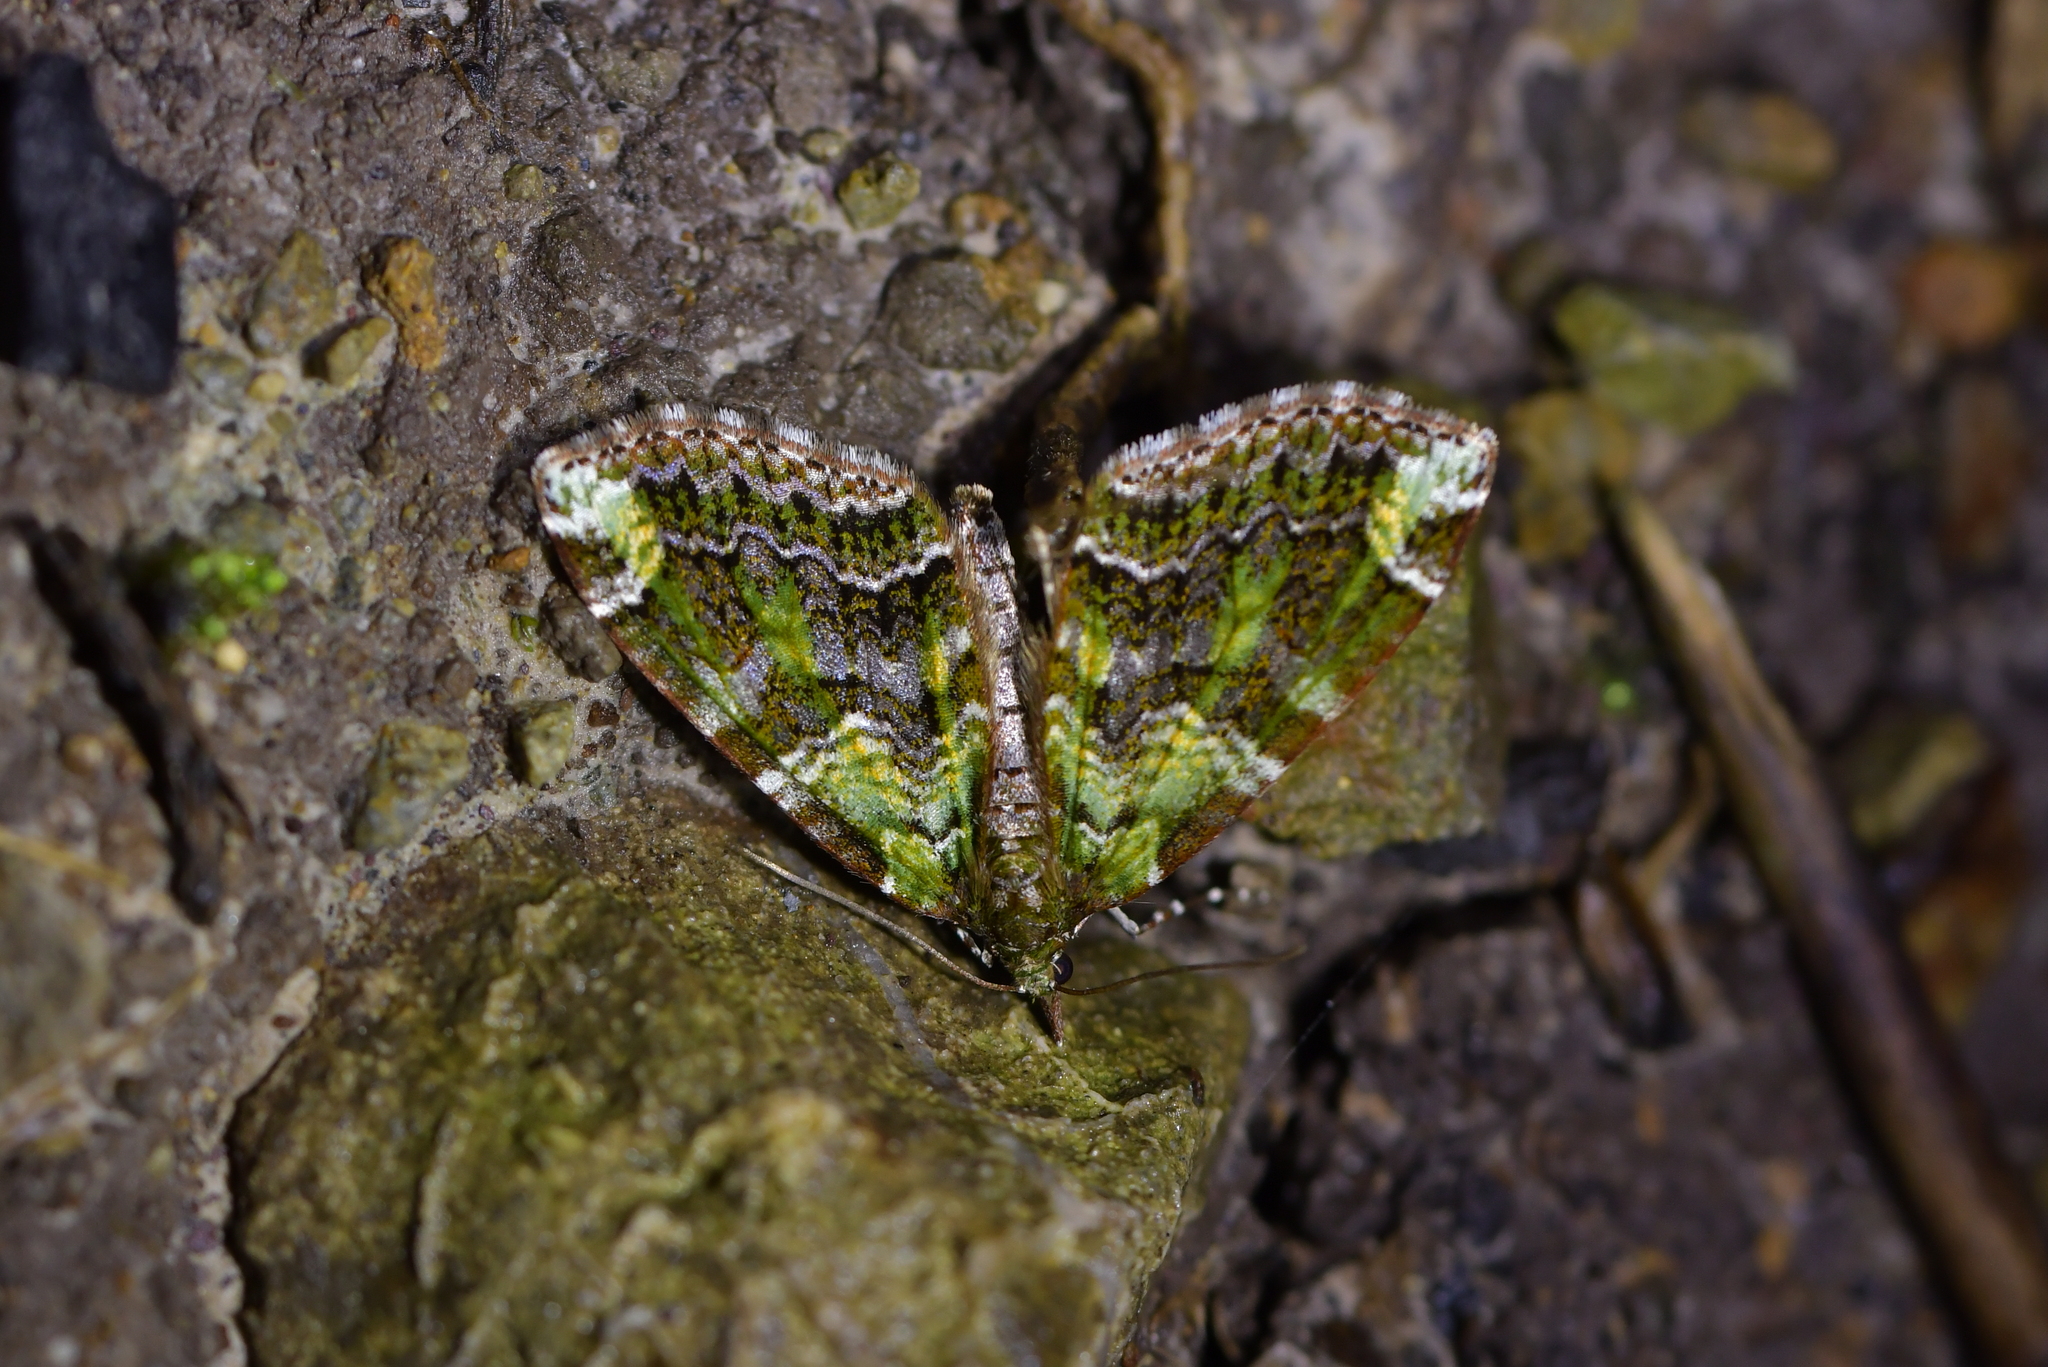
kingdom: Animalia
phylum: Arthropoda
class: Insecta
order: Lepidoptera
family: Geometridae
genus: Tatosoma
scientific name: Tatosoma apicipallida
